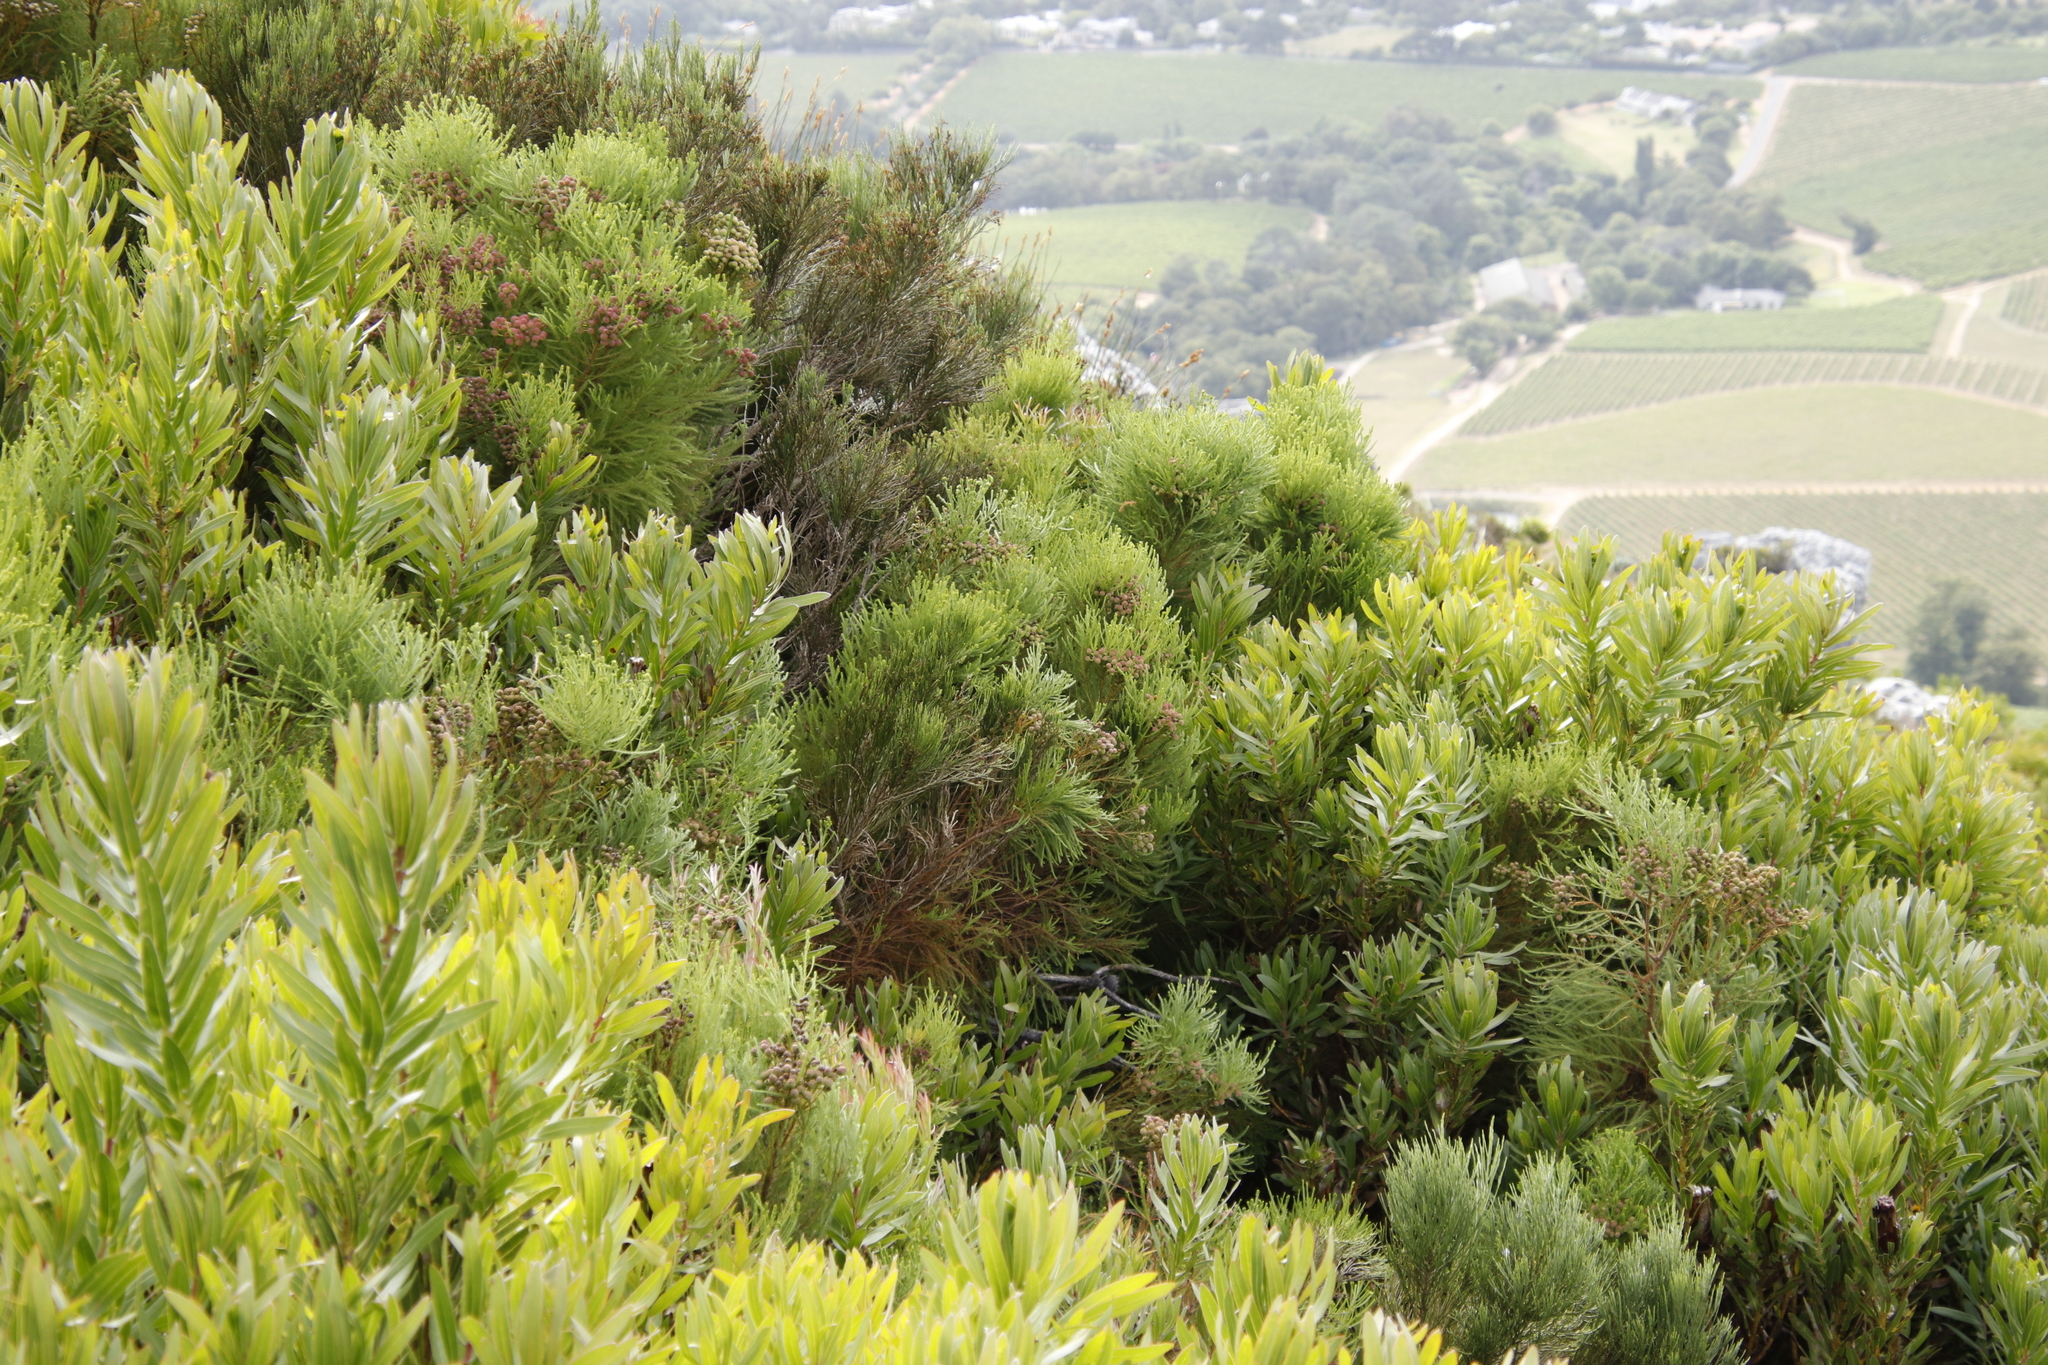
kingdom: Plantae
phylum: Tracheophyta
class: Magnoliopsida
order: Bruniales
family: Bruniaceae
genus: Berzelia
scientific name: Berzelia lanuginosa
